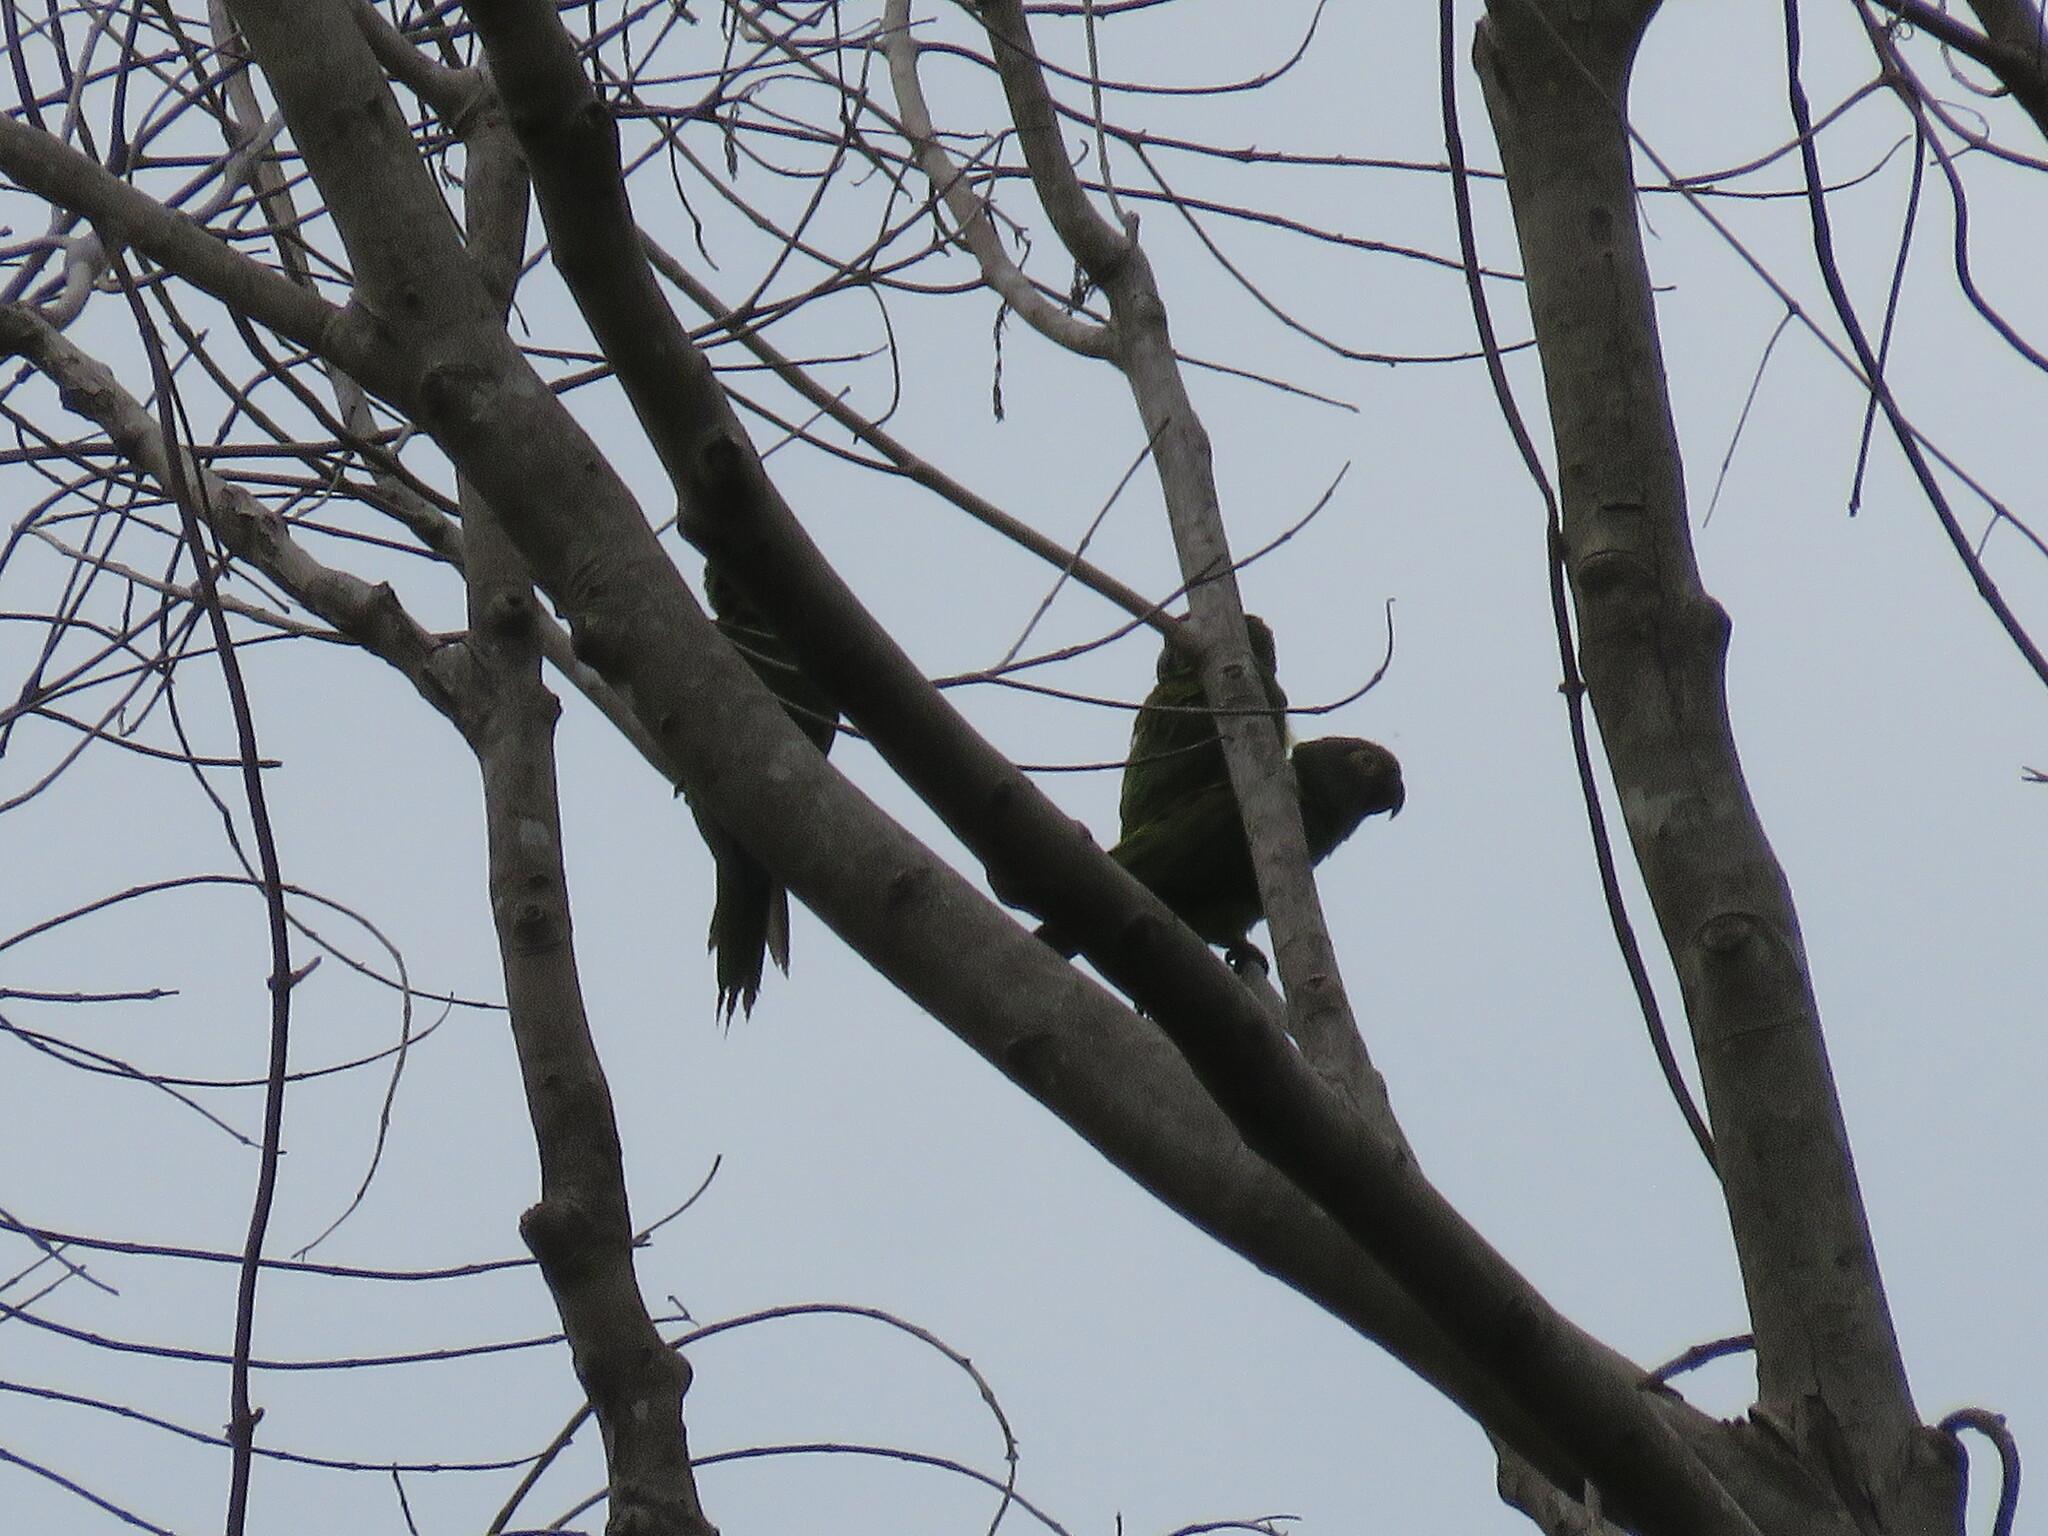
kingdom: Animalia
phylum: Chordata
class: Aves
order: Psittaciformes
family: Psittacidae
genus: Aratinga
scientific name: Aratinga weddellii
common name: Dusky-headed parakeet
